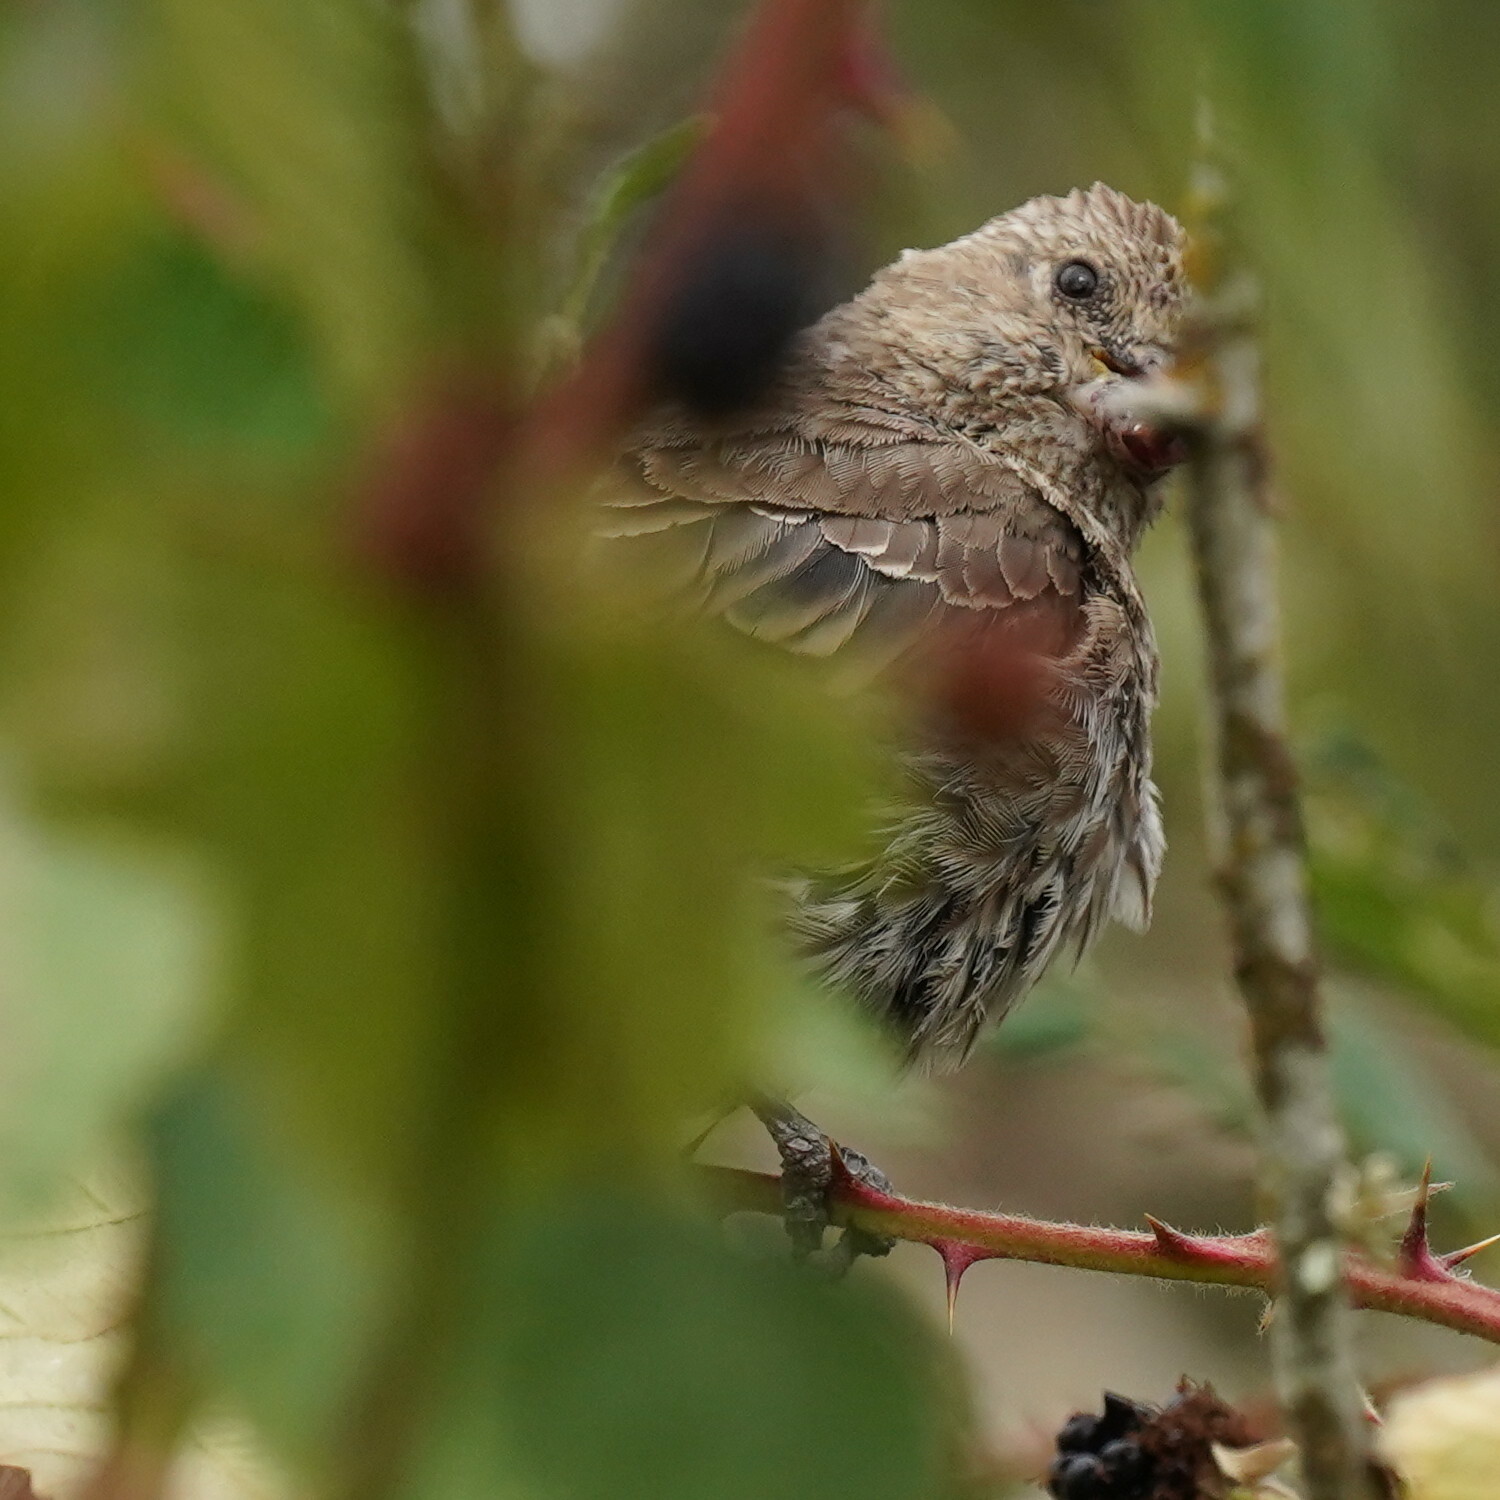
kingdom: Animalia
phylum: Chordata
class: Aves
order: Passeriformes
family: Fringillidae
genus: Haemorhous
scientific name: Haemorhous mexicanus
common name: House finch
